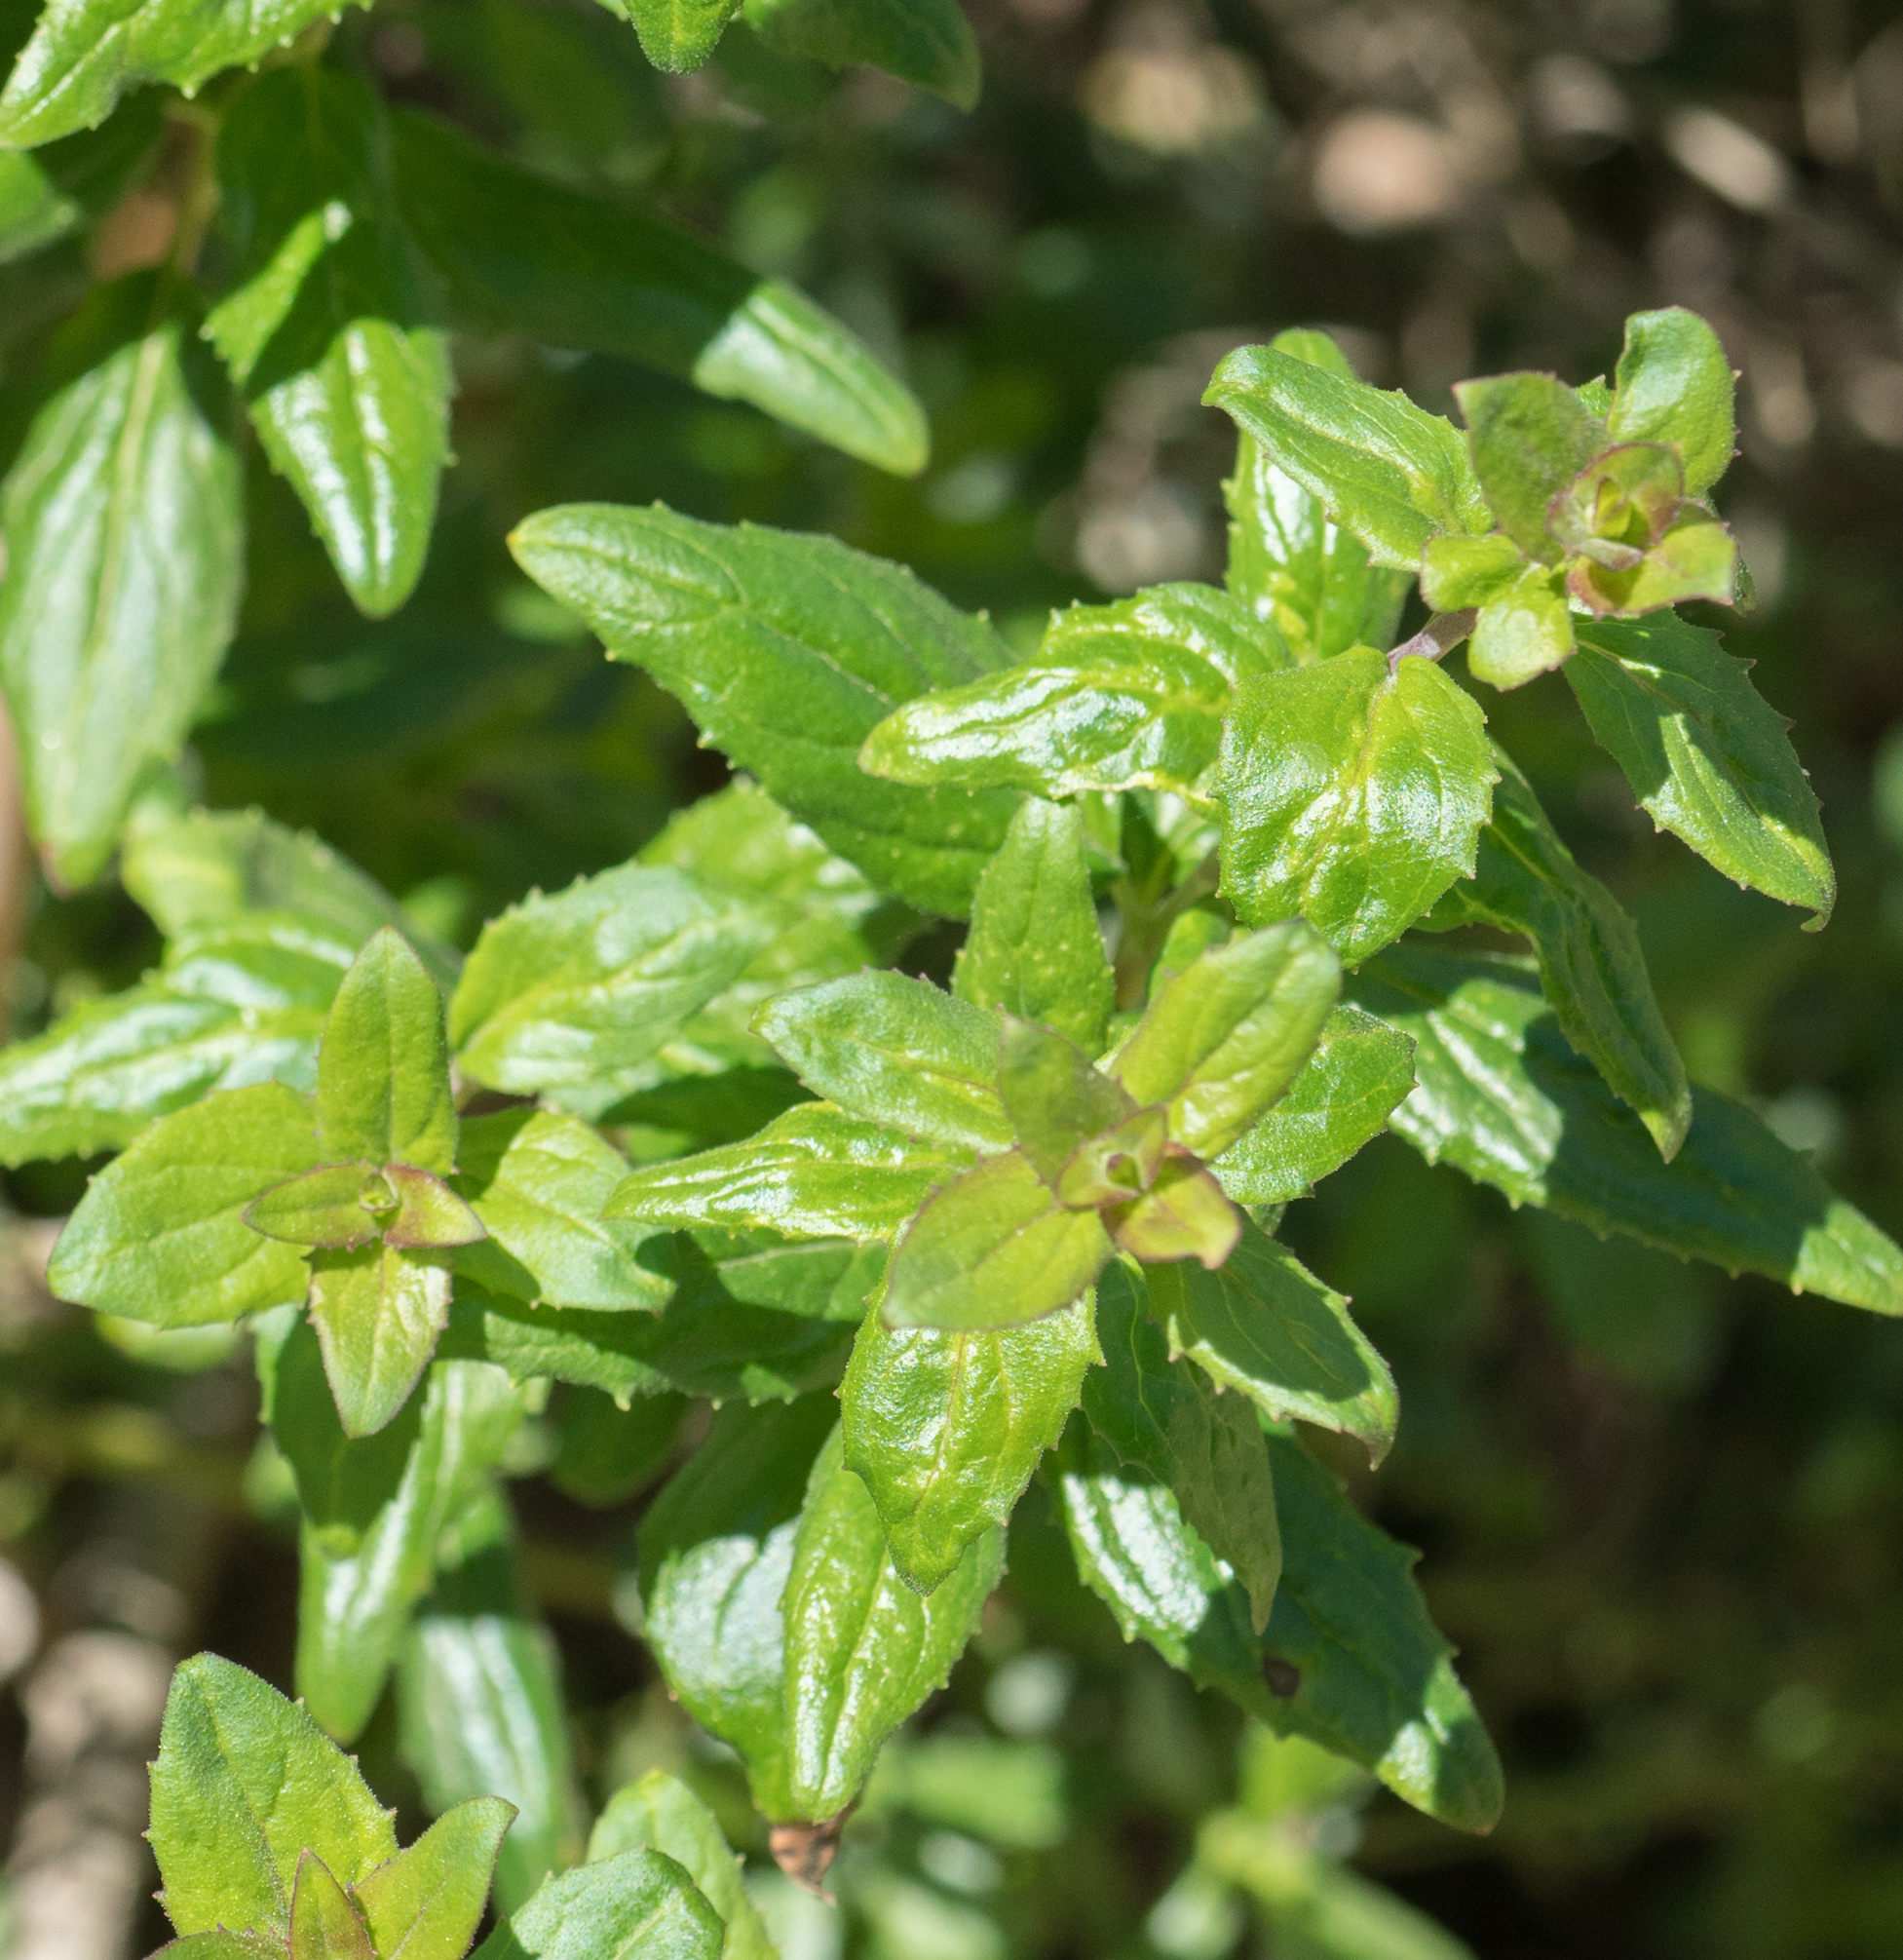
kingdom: Plantae
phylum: Tracheophyta
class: Magnoliopsida
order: Lamiales
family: Plantaginaceae
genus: Keckiella
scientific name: Keckiella cordifolia
